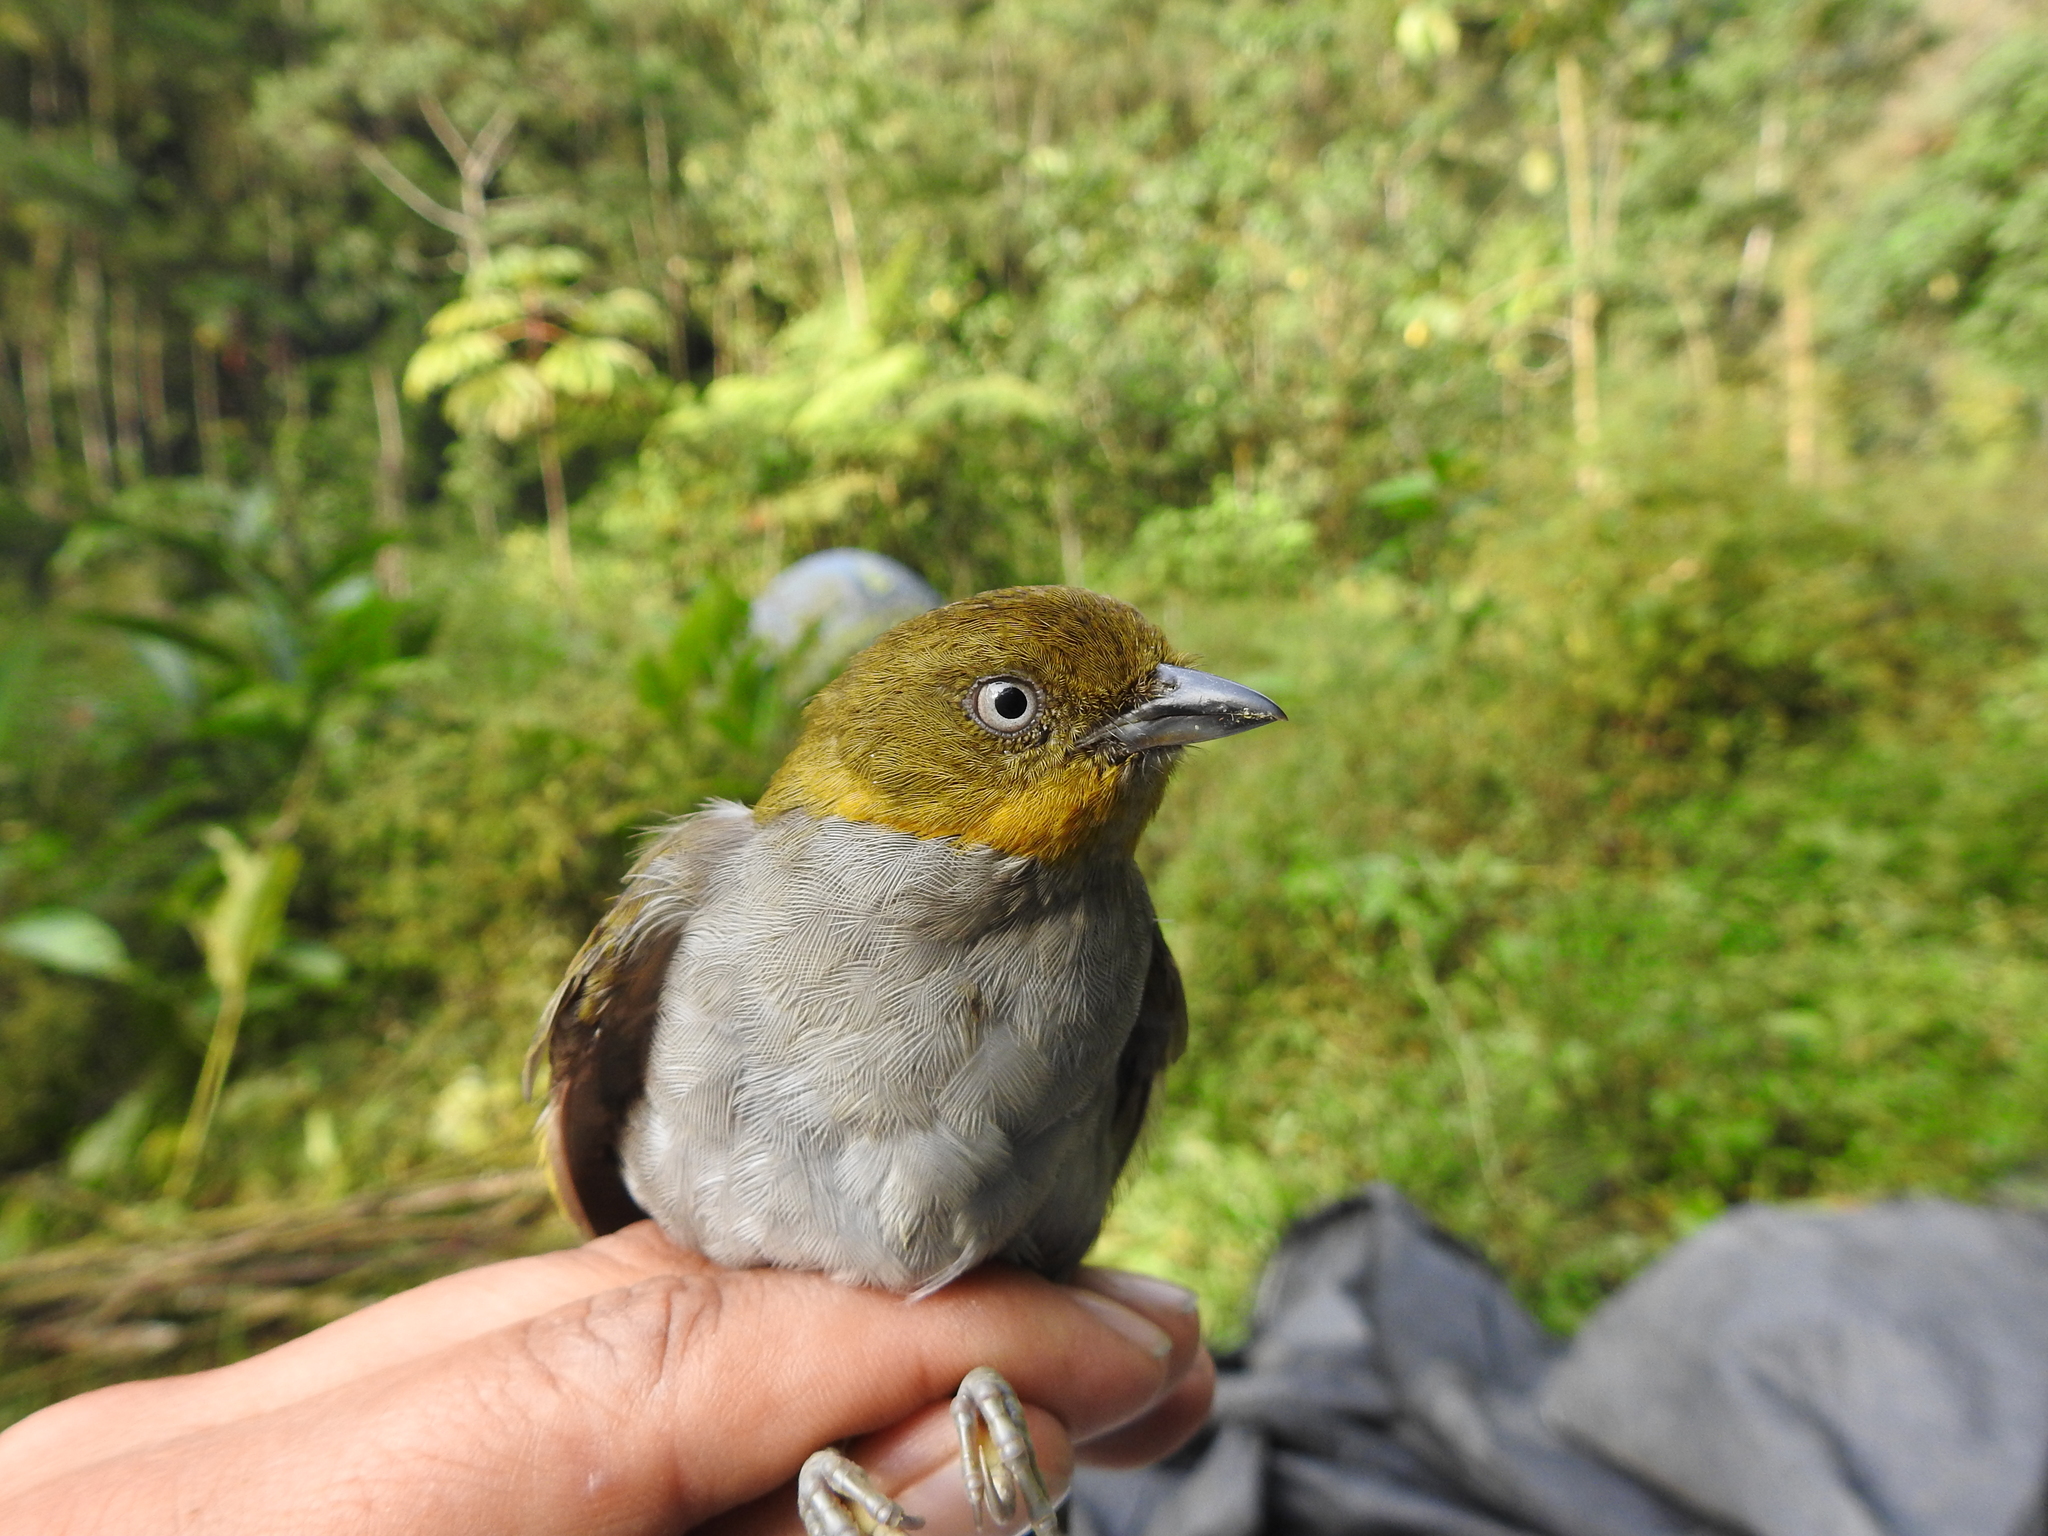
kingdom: Animalia
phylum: Chordata
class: Aves
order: Passeriformes
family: Passerellidae
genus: Chlorospingus
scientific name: Chlorospingus flavigularis
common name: Yellow-throated bush-tanager
